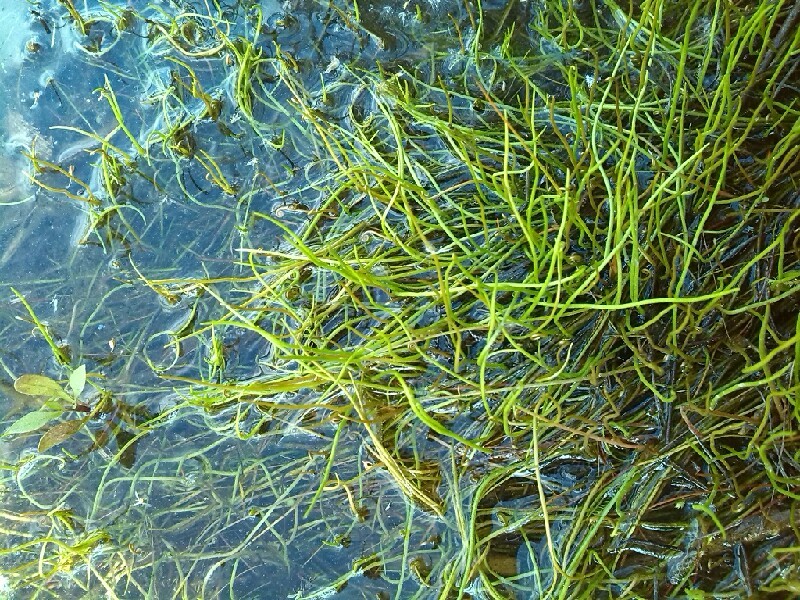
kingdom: Plantae
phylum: Tracheophyta
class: Polypodiopsida
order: Salviniales
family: Marsileaceae
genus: Pilularia
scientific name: Pilularia globulifera
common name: Pillwort
